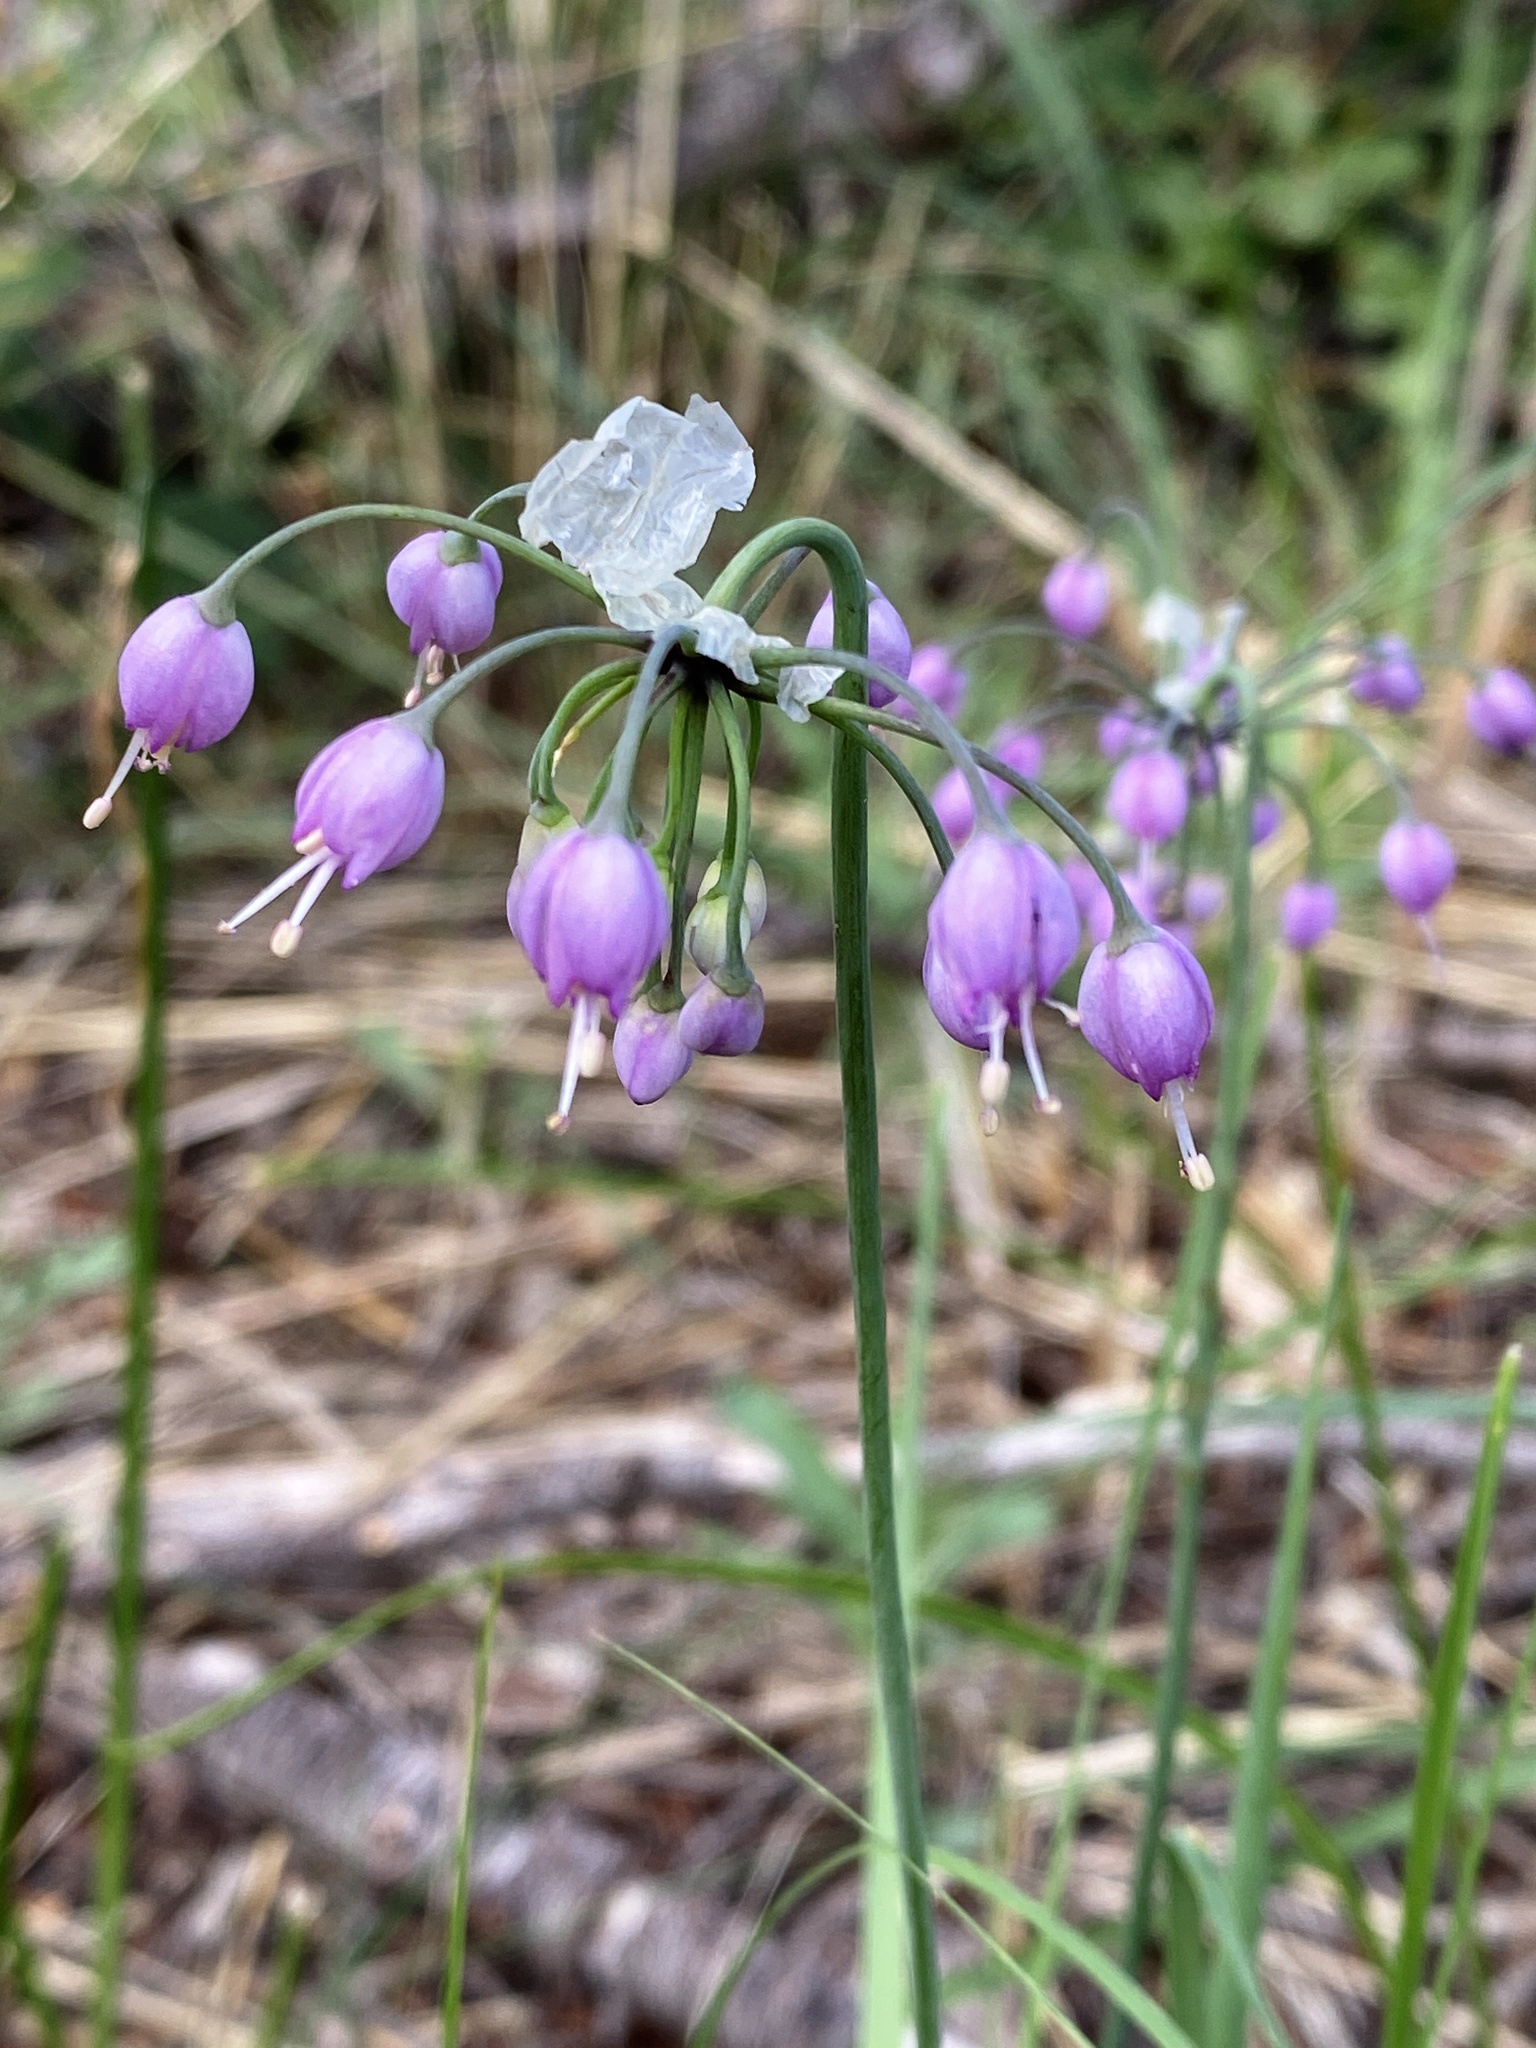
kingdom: Plantae
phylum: Tracheophyta
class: Liliopsida
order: Asparagales
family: Amaryllidaceae
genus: Allium
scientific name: Allium cernuum
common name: Nodding onion
